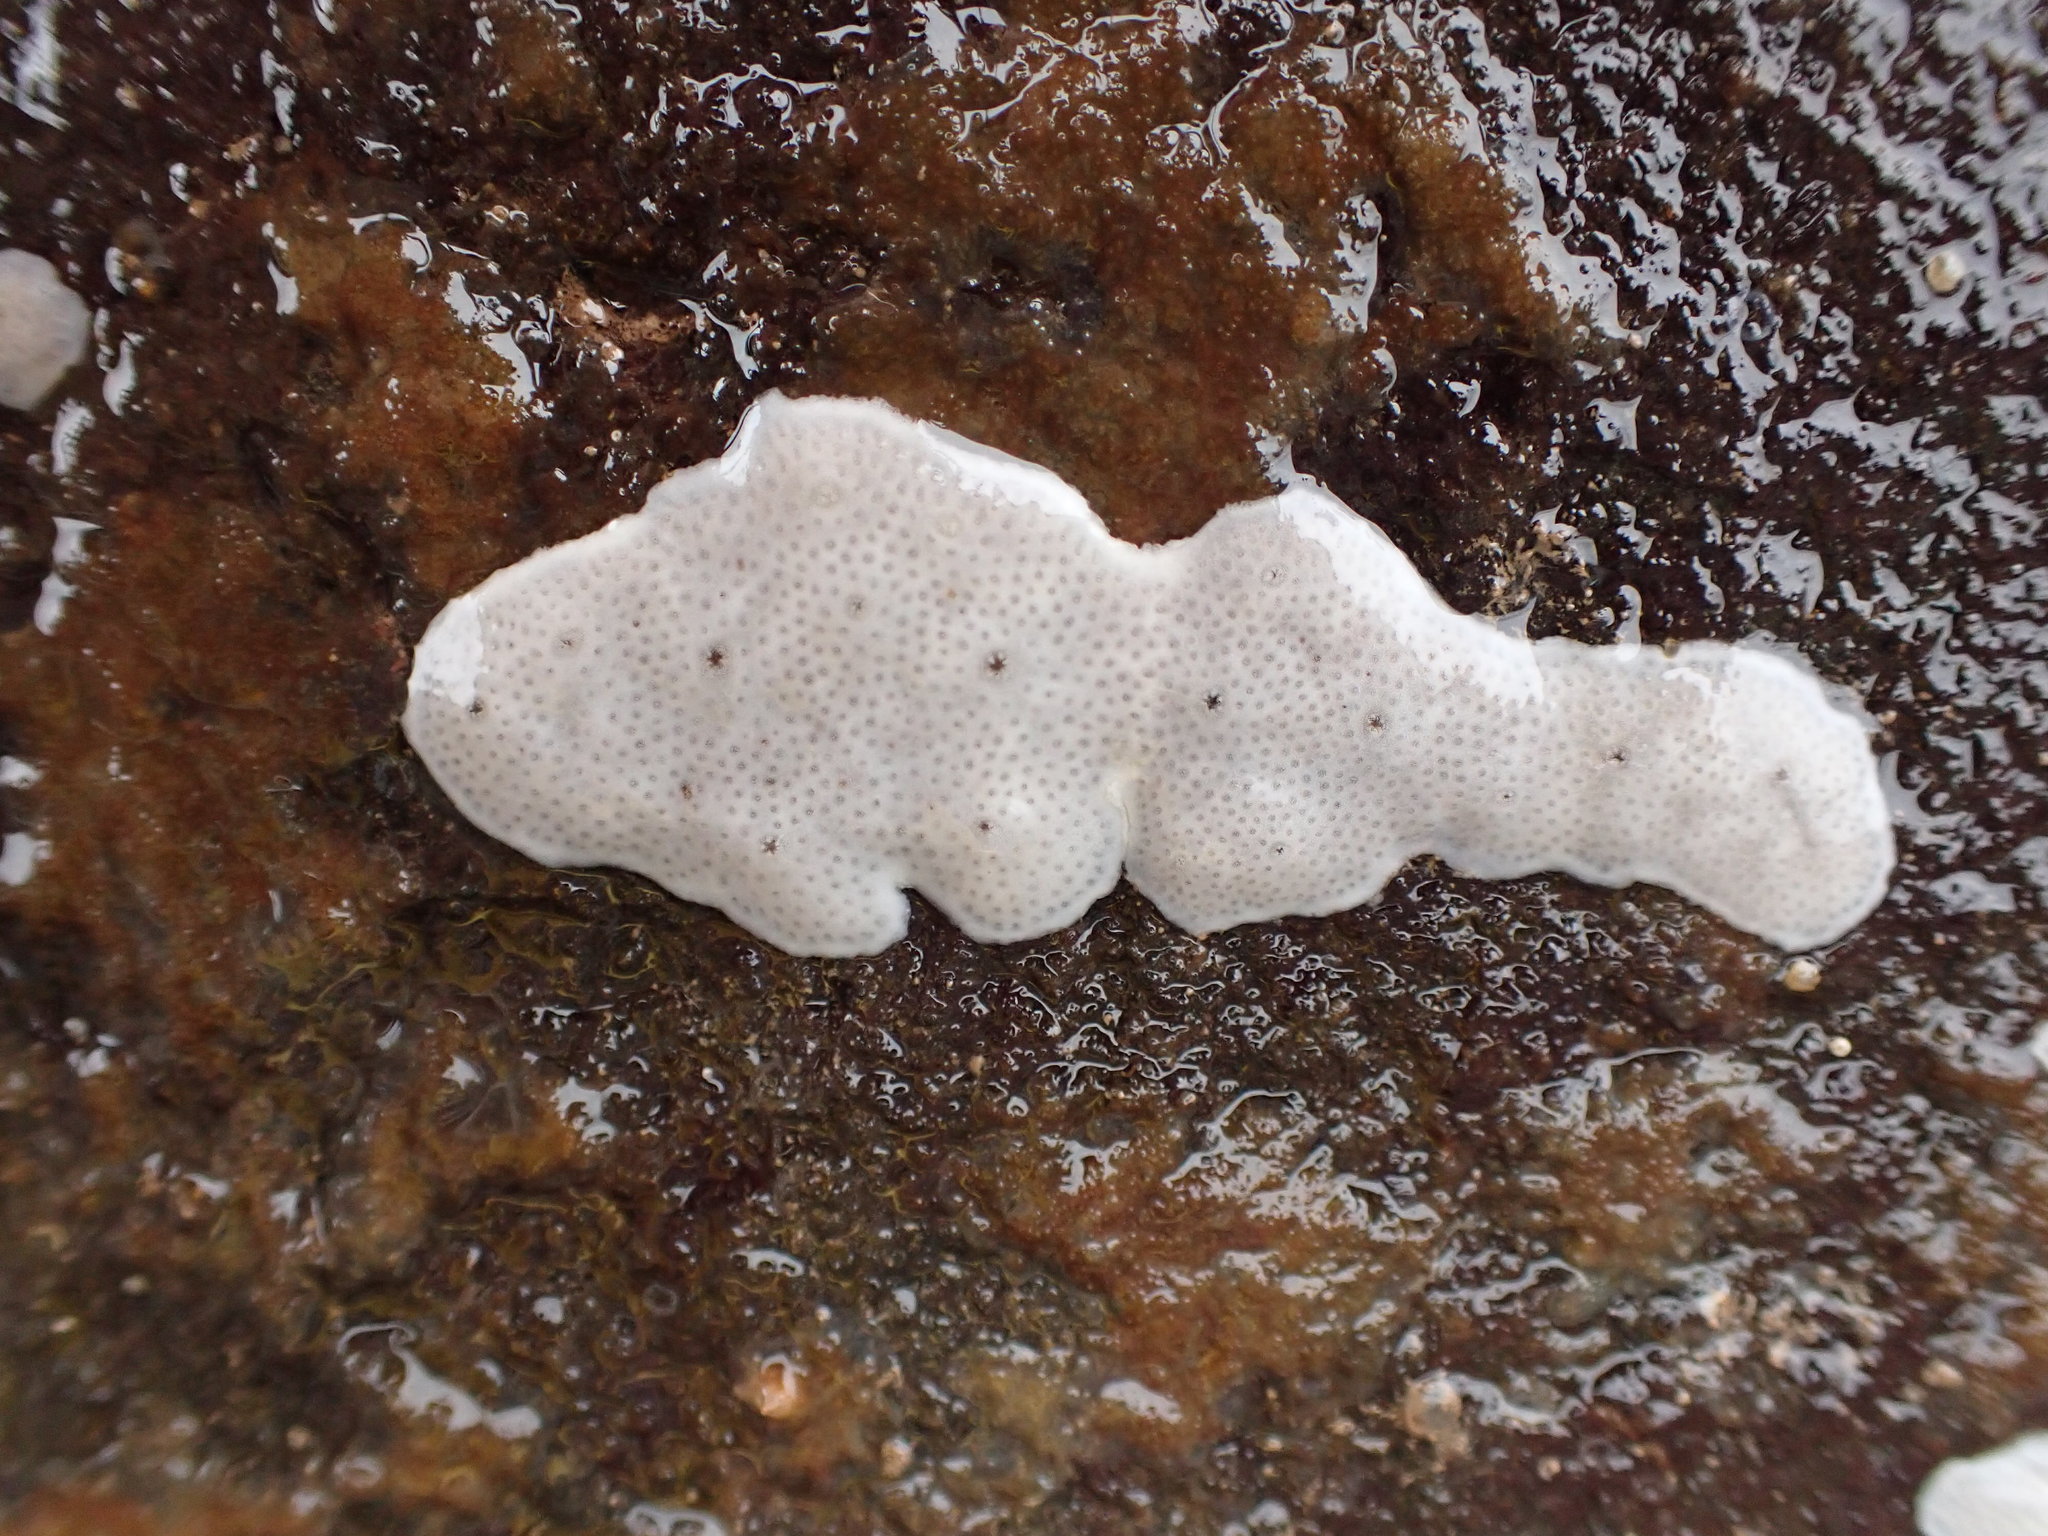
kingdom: Animalia
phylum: Chordata
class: Ascidiacea
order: Aplousobranchia
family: Didemnidae
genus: Didemnum
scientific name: Didemnum albidum
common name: Northern white crust
